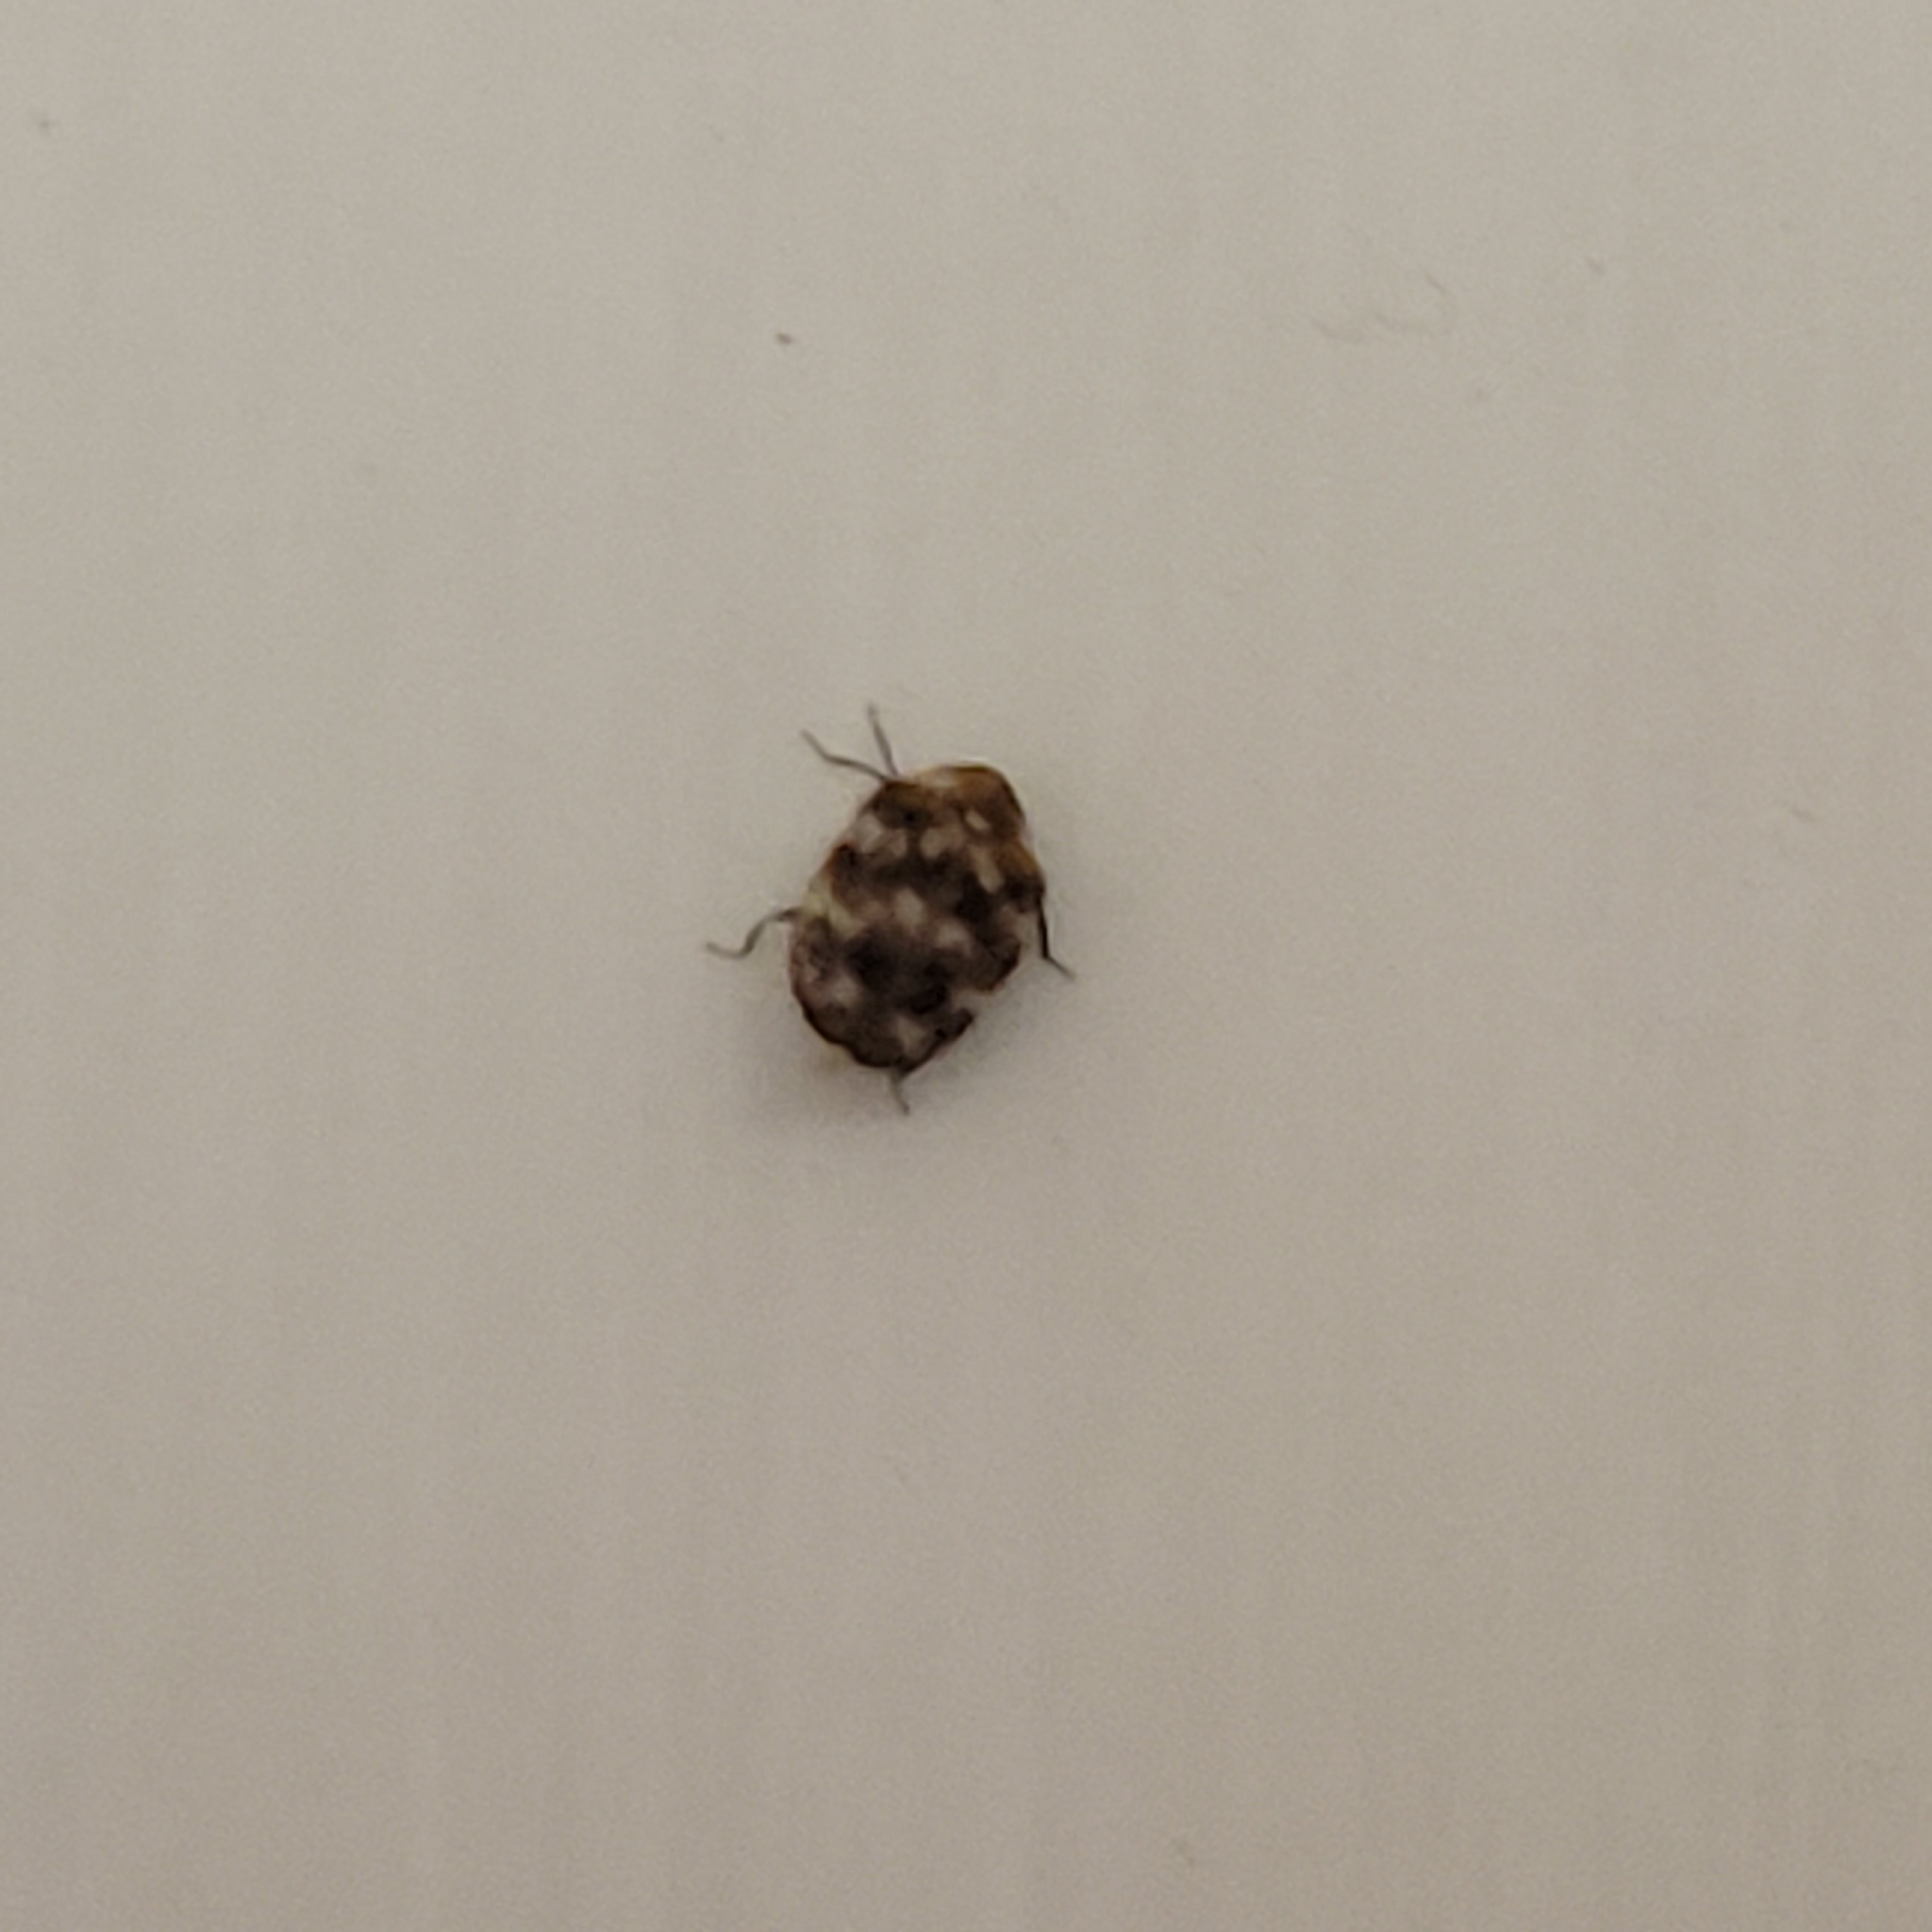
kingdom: Animalia
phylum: Arthropoda
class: Insecta
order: Coleoptera
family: Dermestidae
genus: Anthrenus
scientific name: Anthrenus verbasci
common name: Varied carpet beetle
